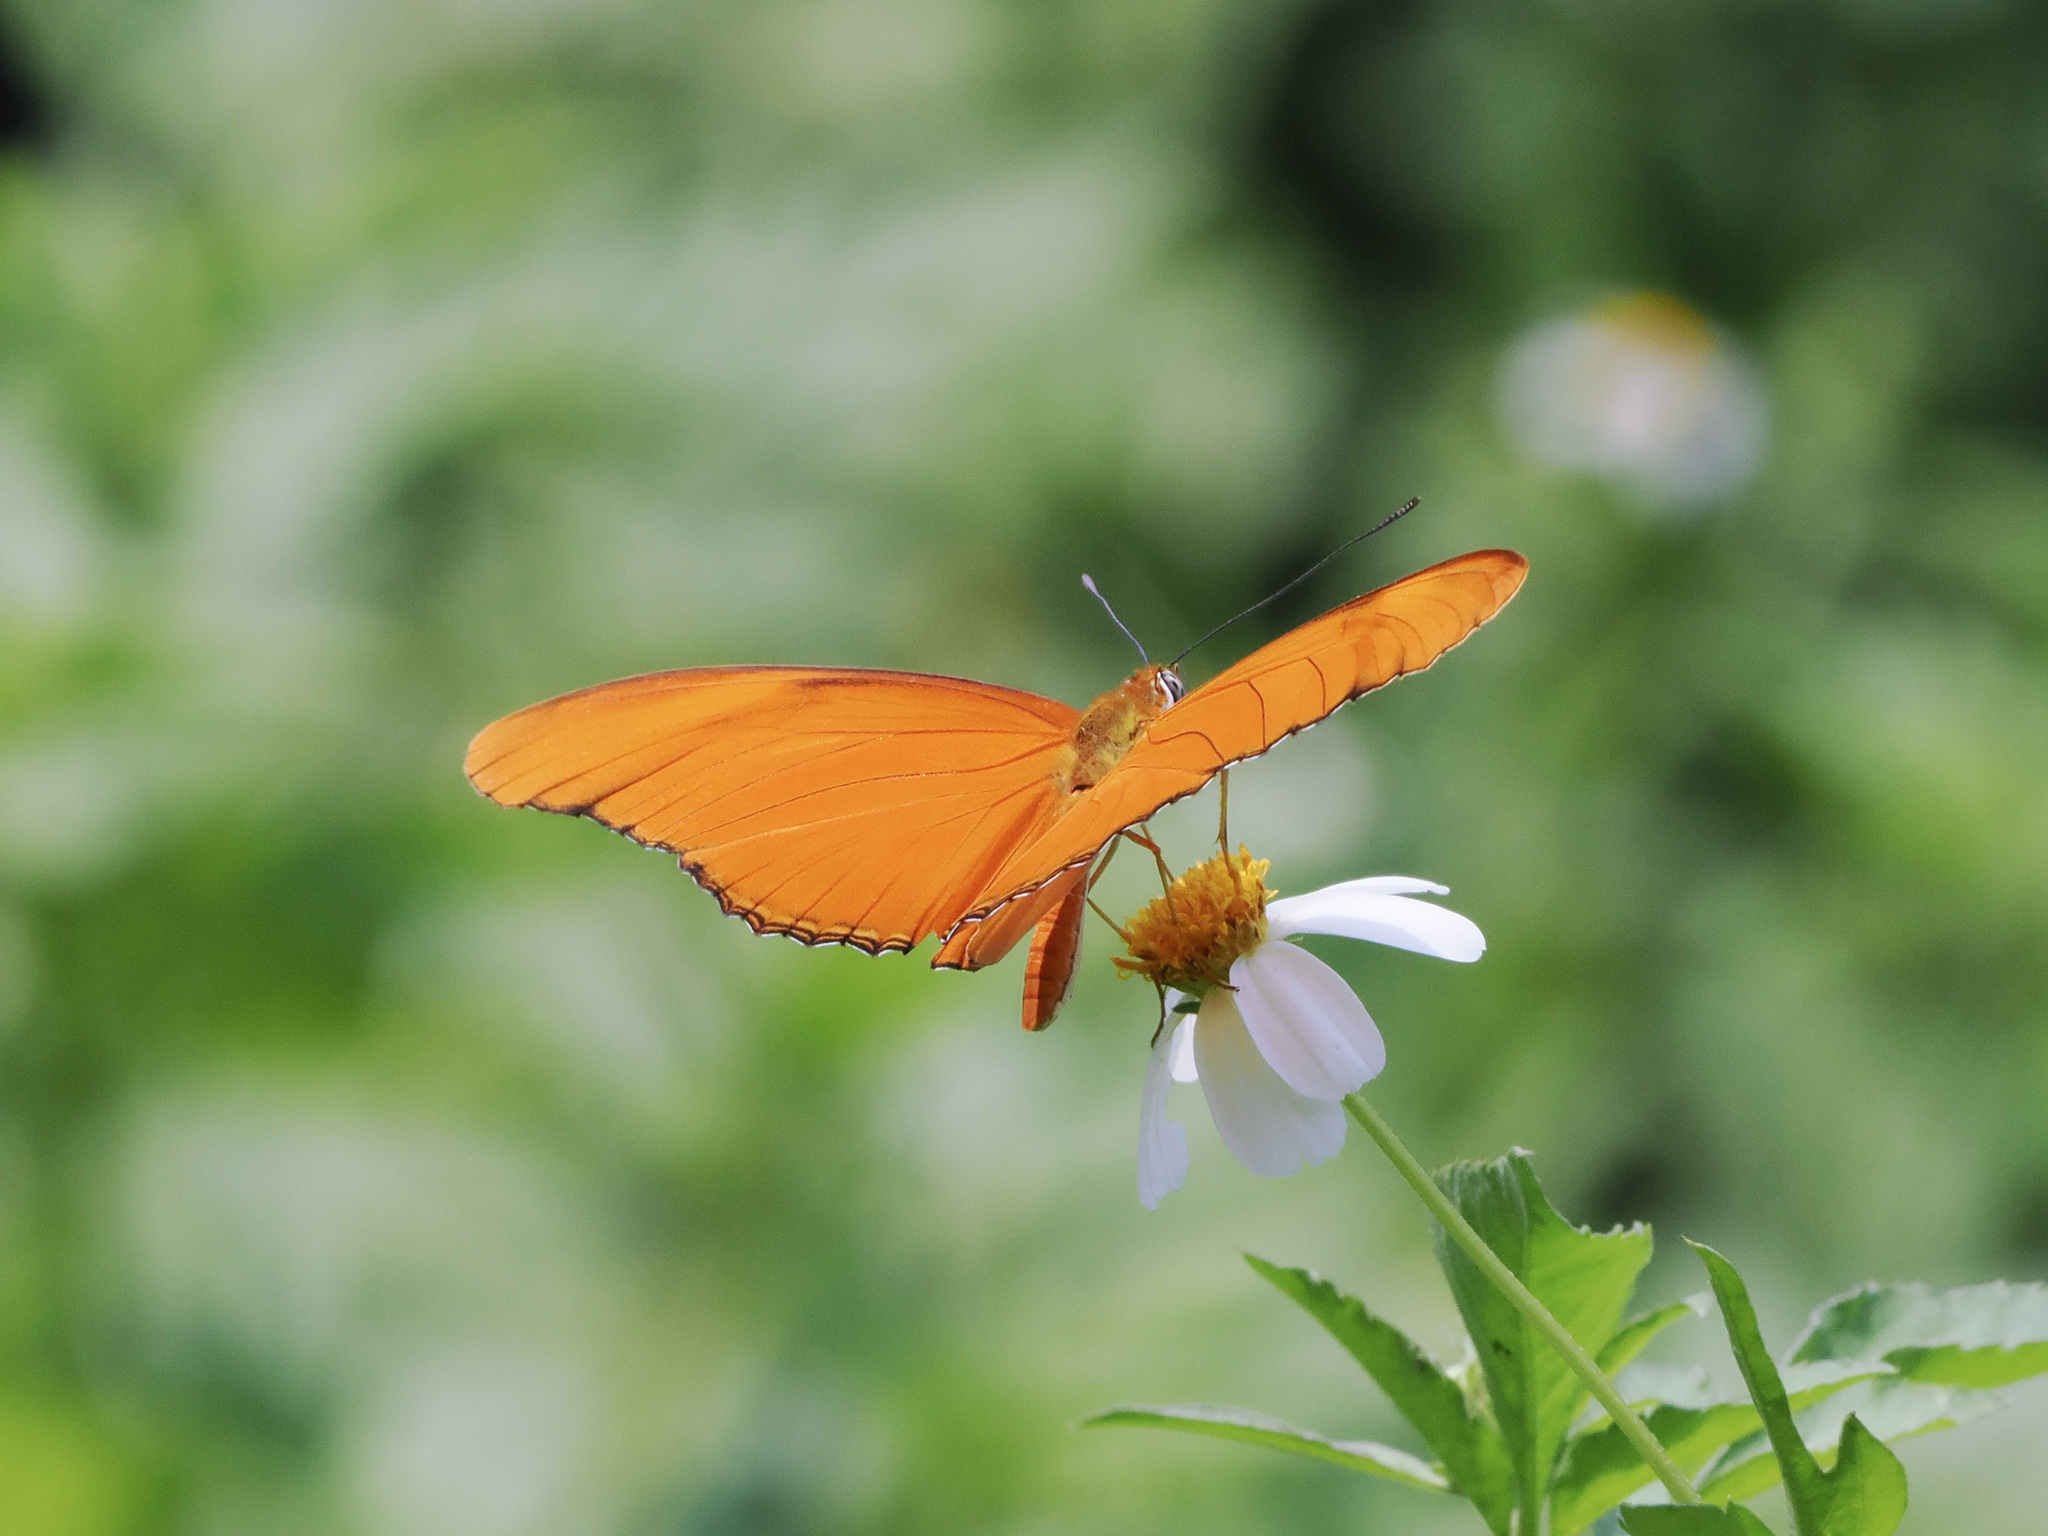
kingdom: Animalia
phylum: Arthropoda
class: Insecta
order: Lepidoptera
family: Nymphalidae
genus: Dryas
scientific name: Dryas iulia
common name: Flambeau
